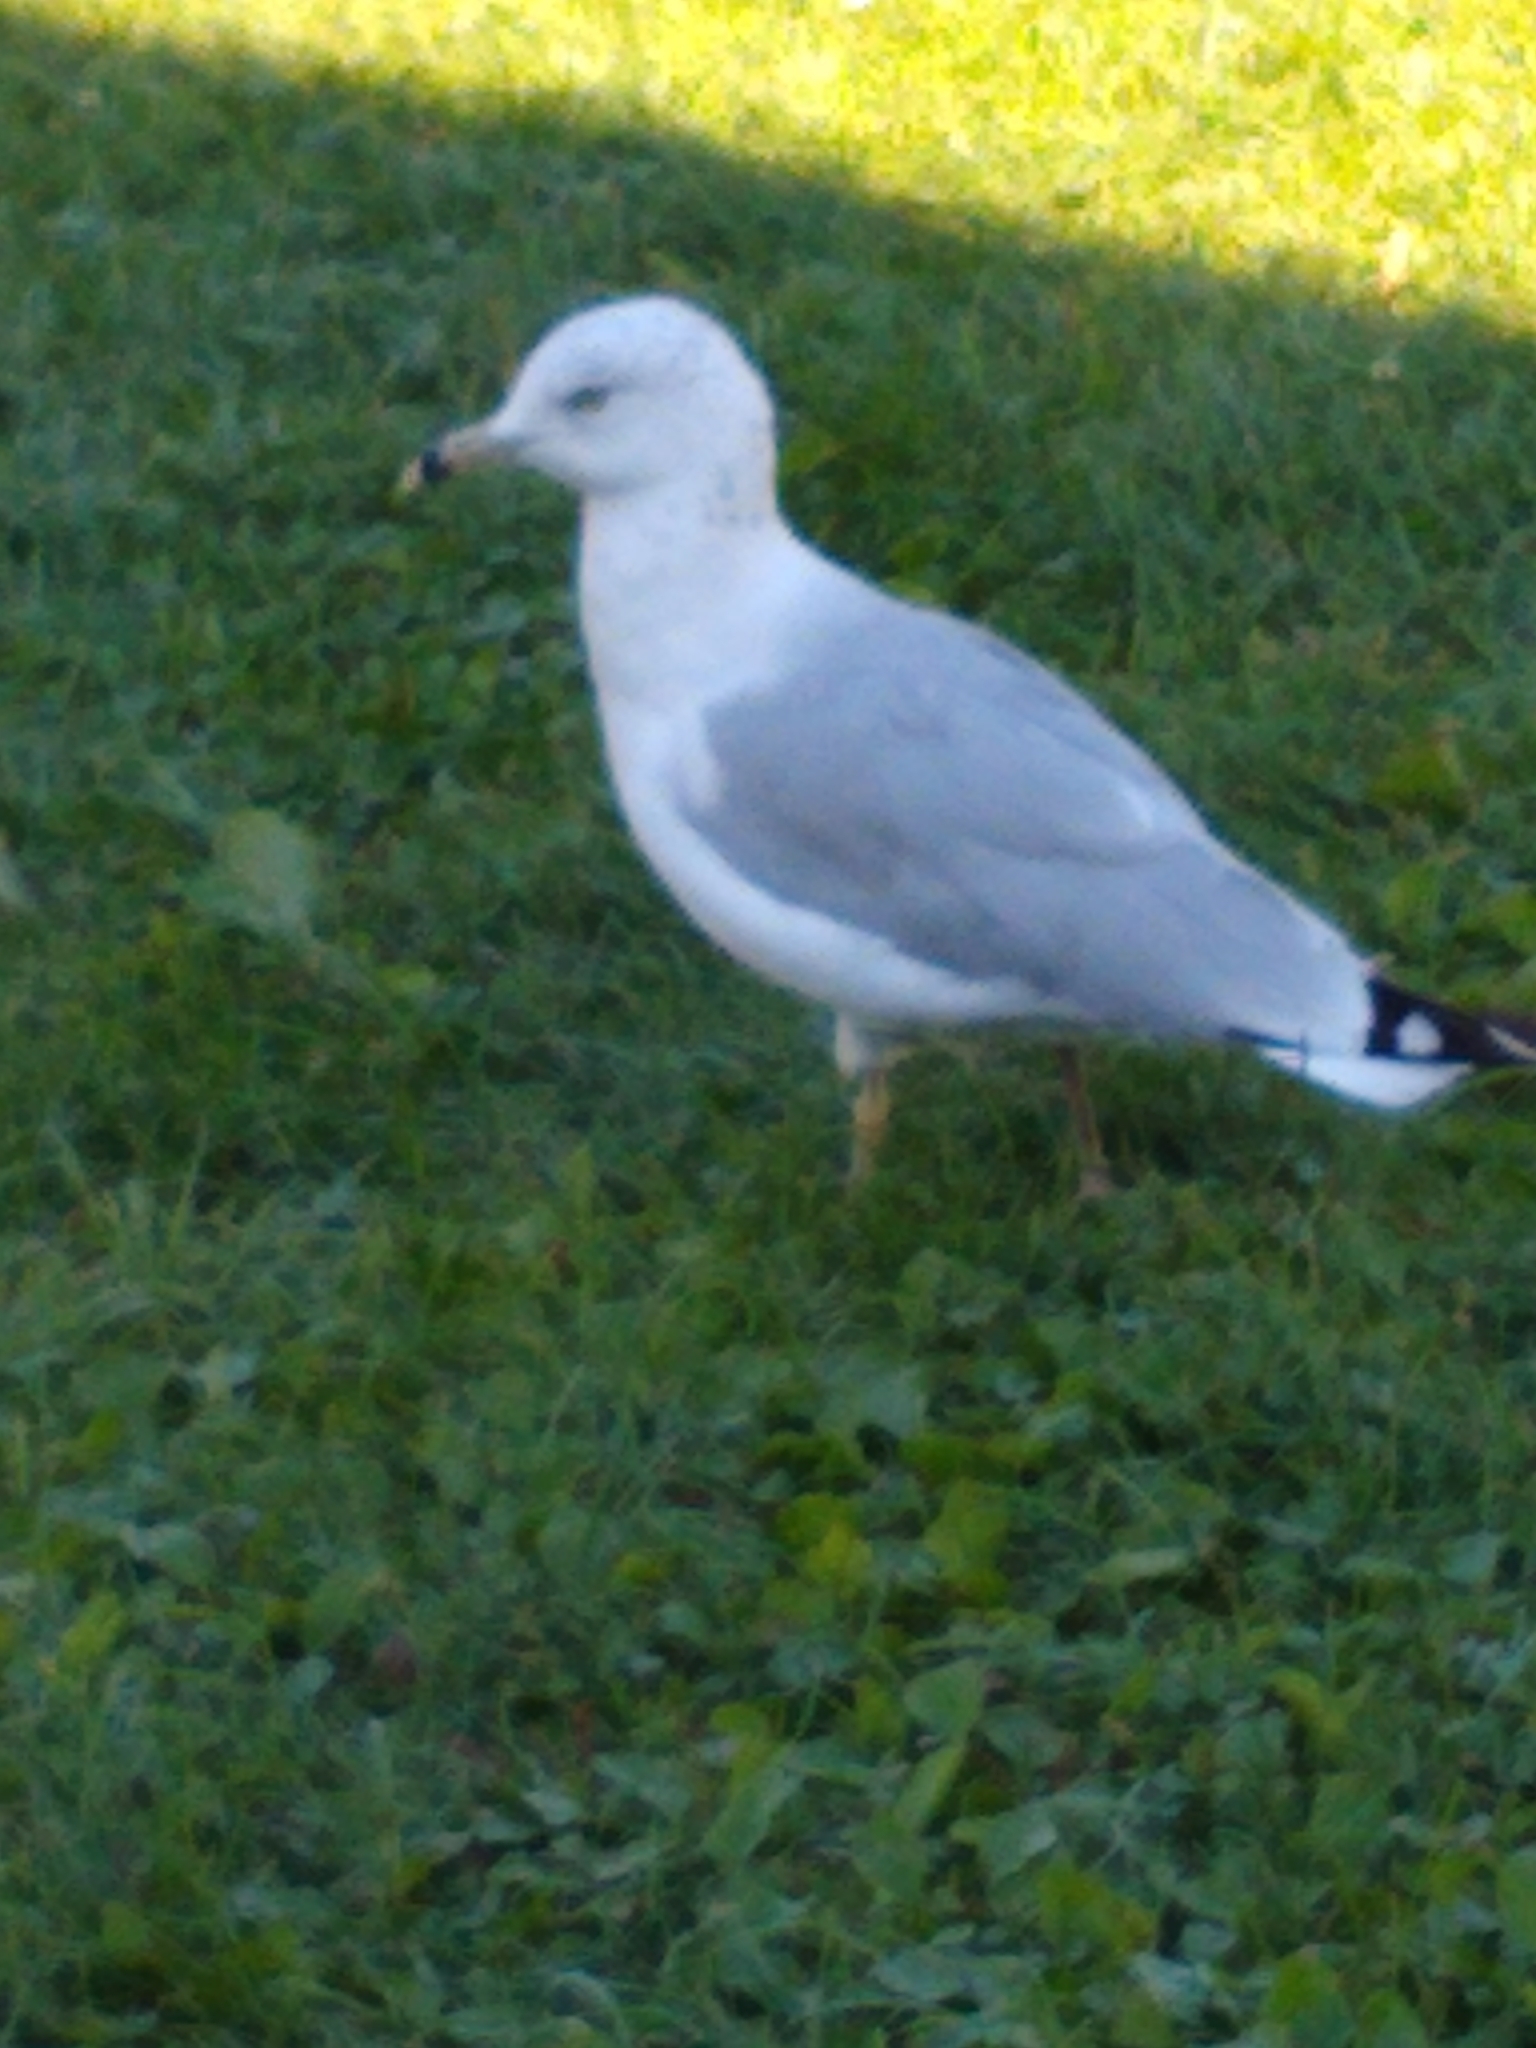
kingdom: Animalia
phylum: Chordata
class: Aves
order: Charadriiformes
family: Laridae
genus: Larus
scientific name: Larus delawarensis
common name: Ring-billed gull
